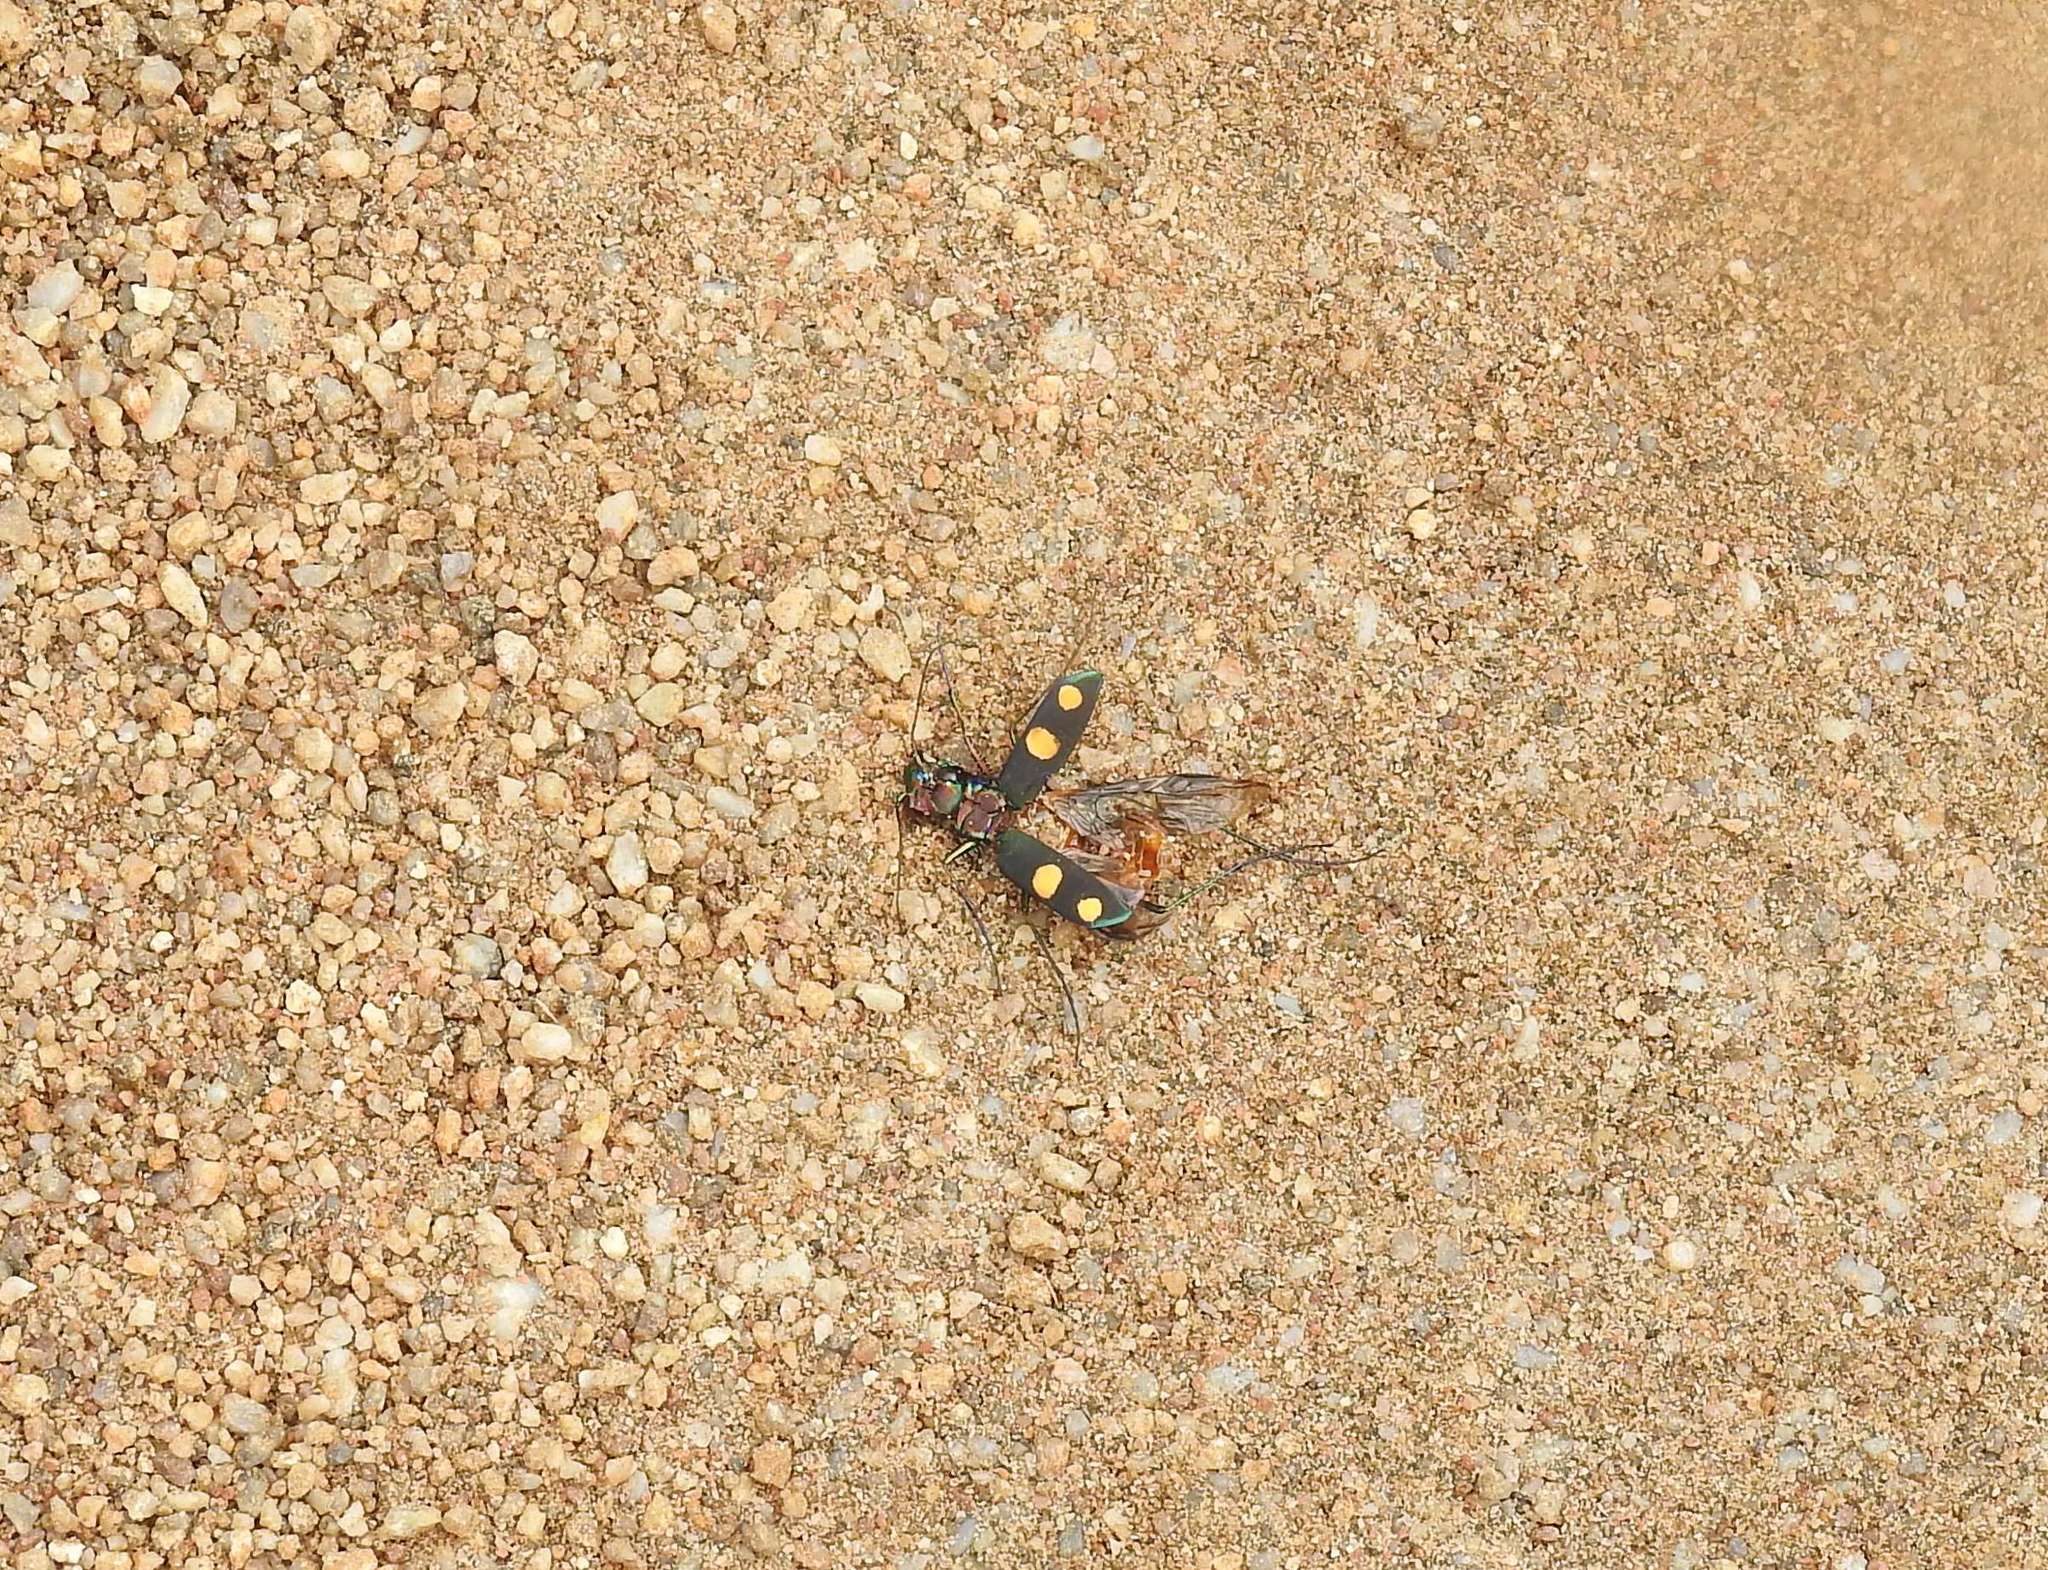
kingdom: Animalia
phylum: Arthropoda
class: Insecta
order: Coleoptera
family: Carabidae
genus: Cicindela
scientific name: Cicindela bicolor
